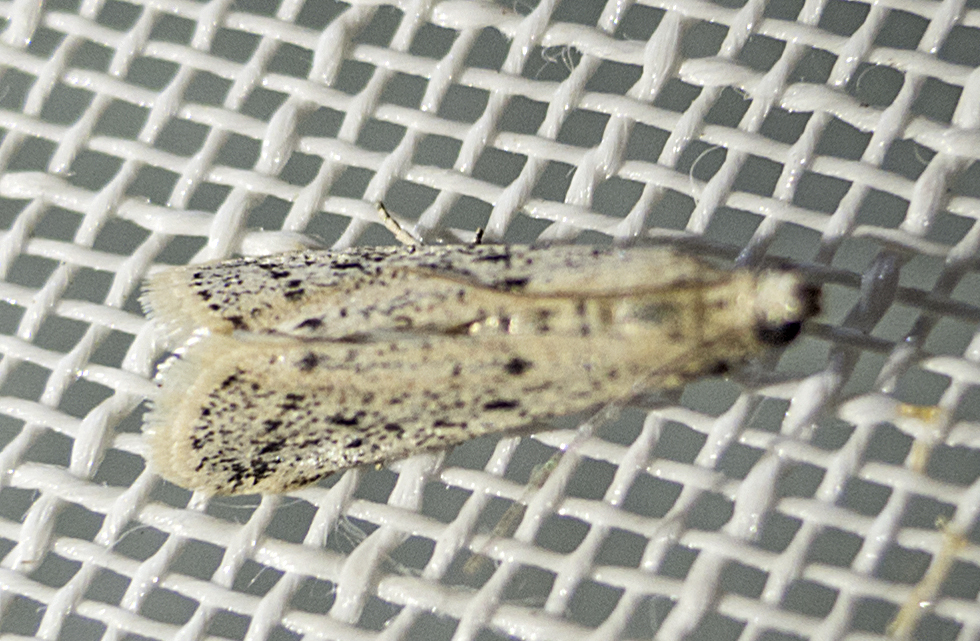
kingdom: Animalia
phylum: Arthropoda
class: Insecta
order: Lepidoptera
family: Pyralidae
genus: Phycitodes
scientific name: Phycitodes lacteella
